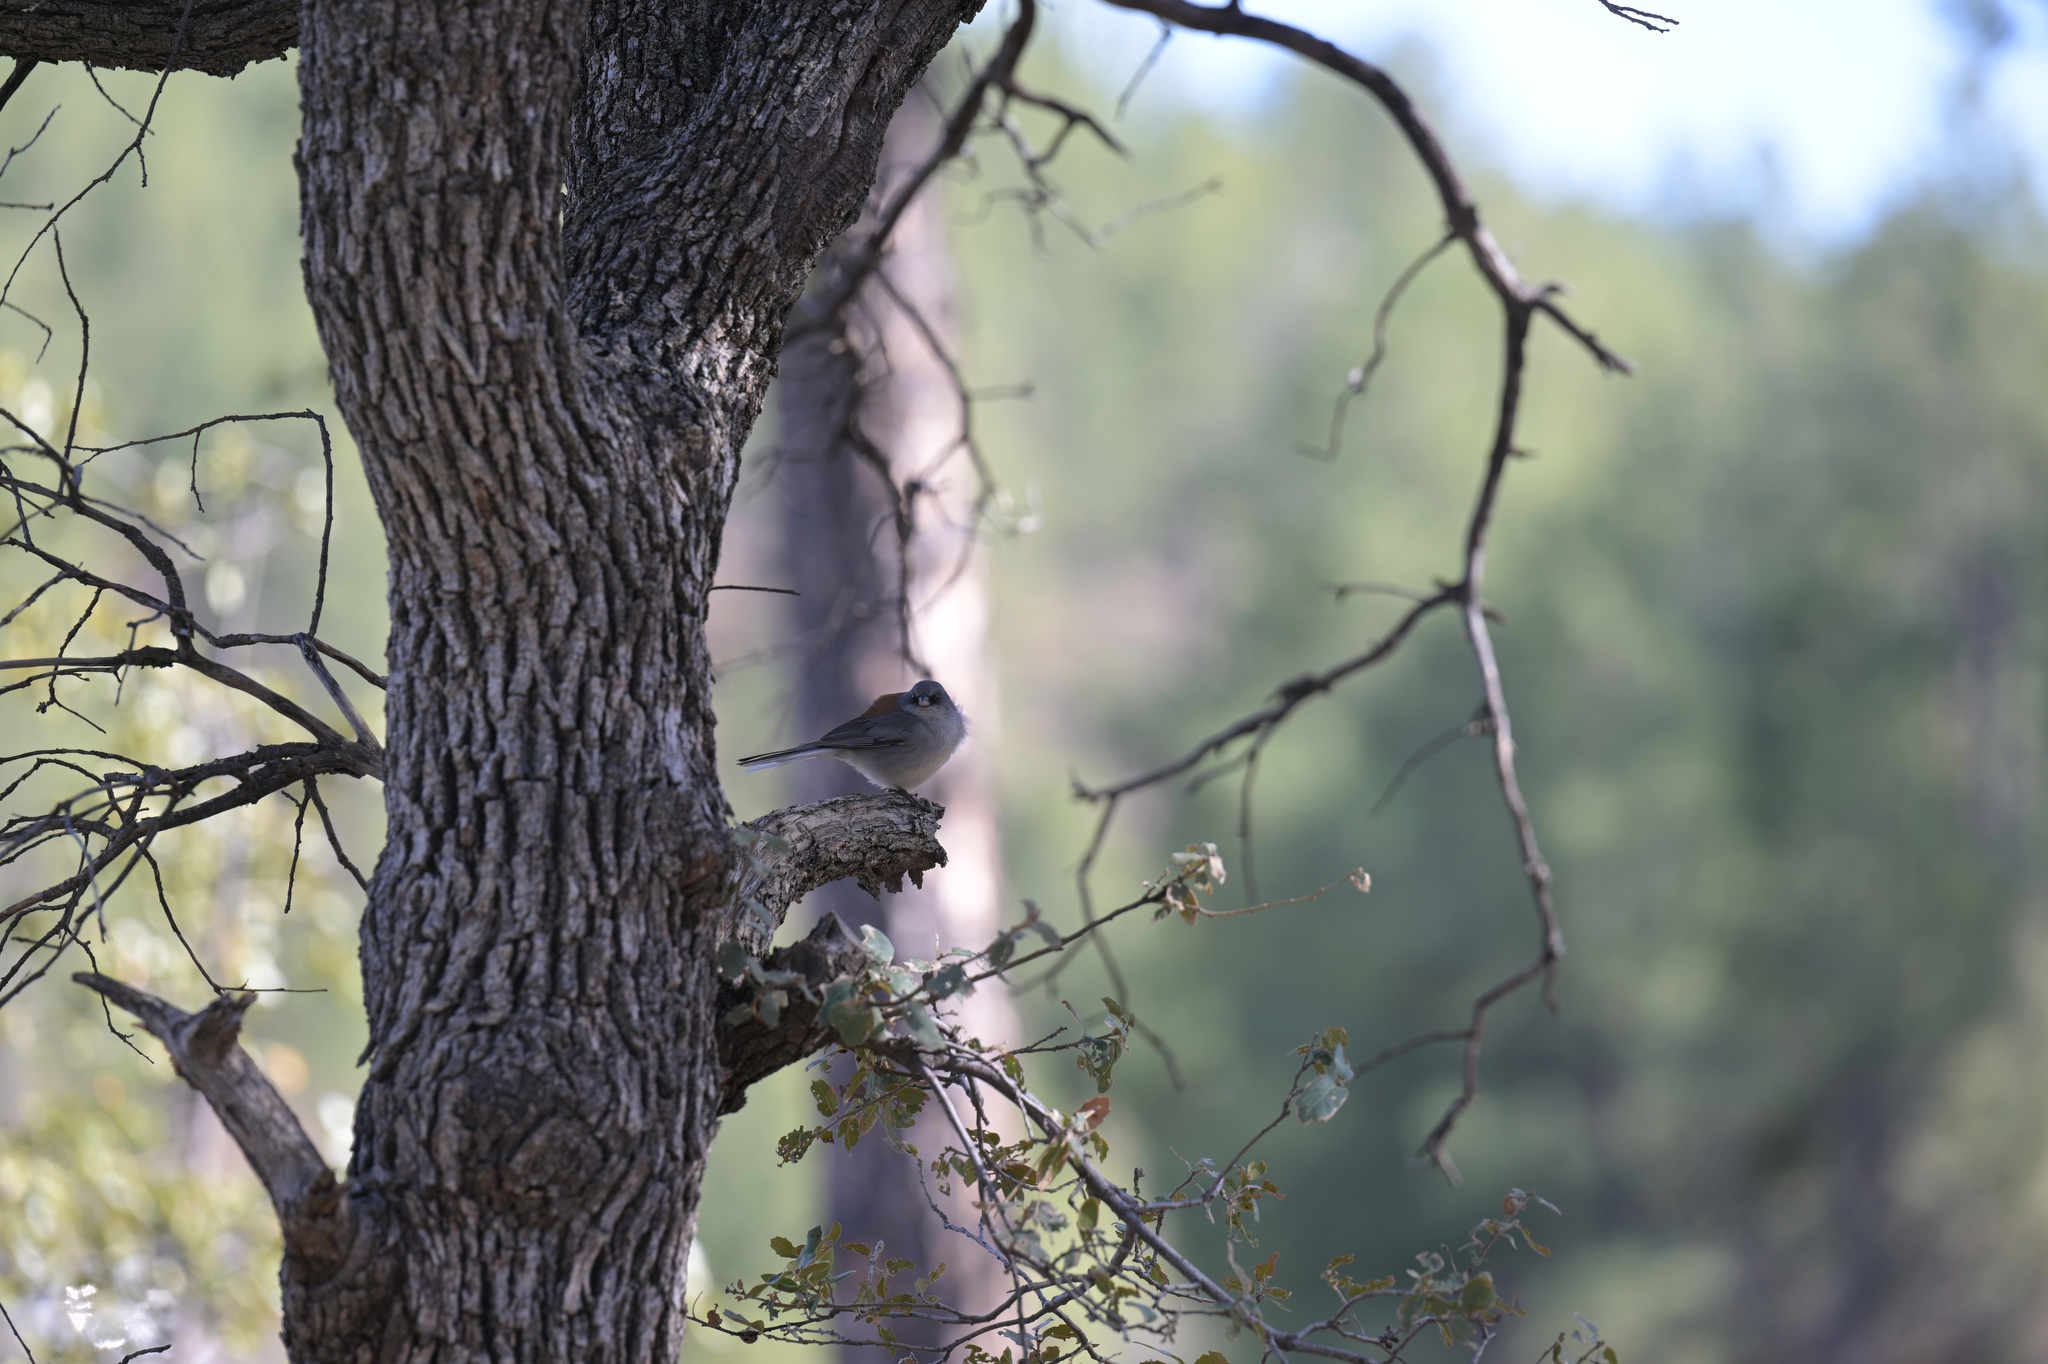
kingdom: Animalia
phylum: Chordata
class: Aves
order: Passeriformes
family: Passerellidae
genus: Junco
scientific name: Junco hyemalis
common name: Dark-eyed junco
